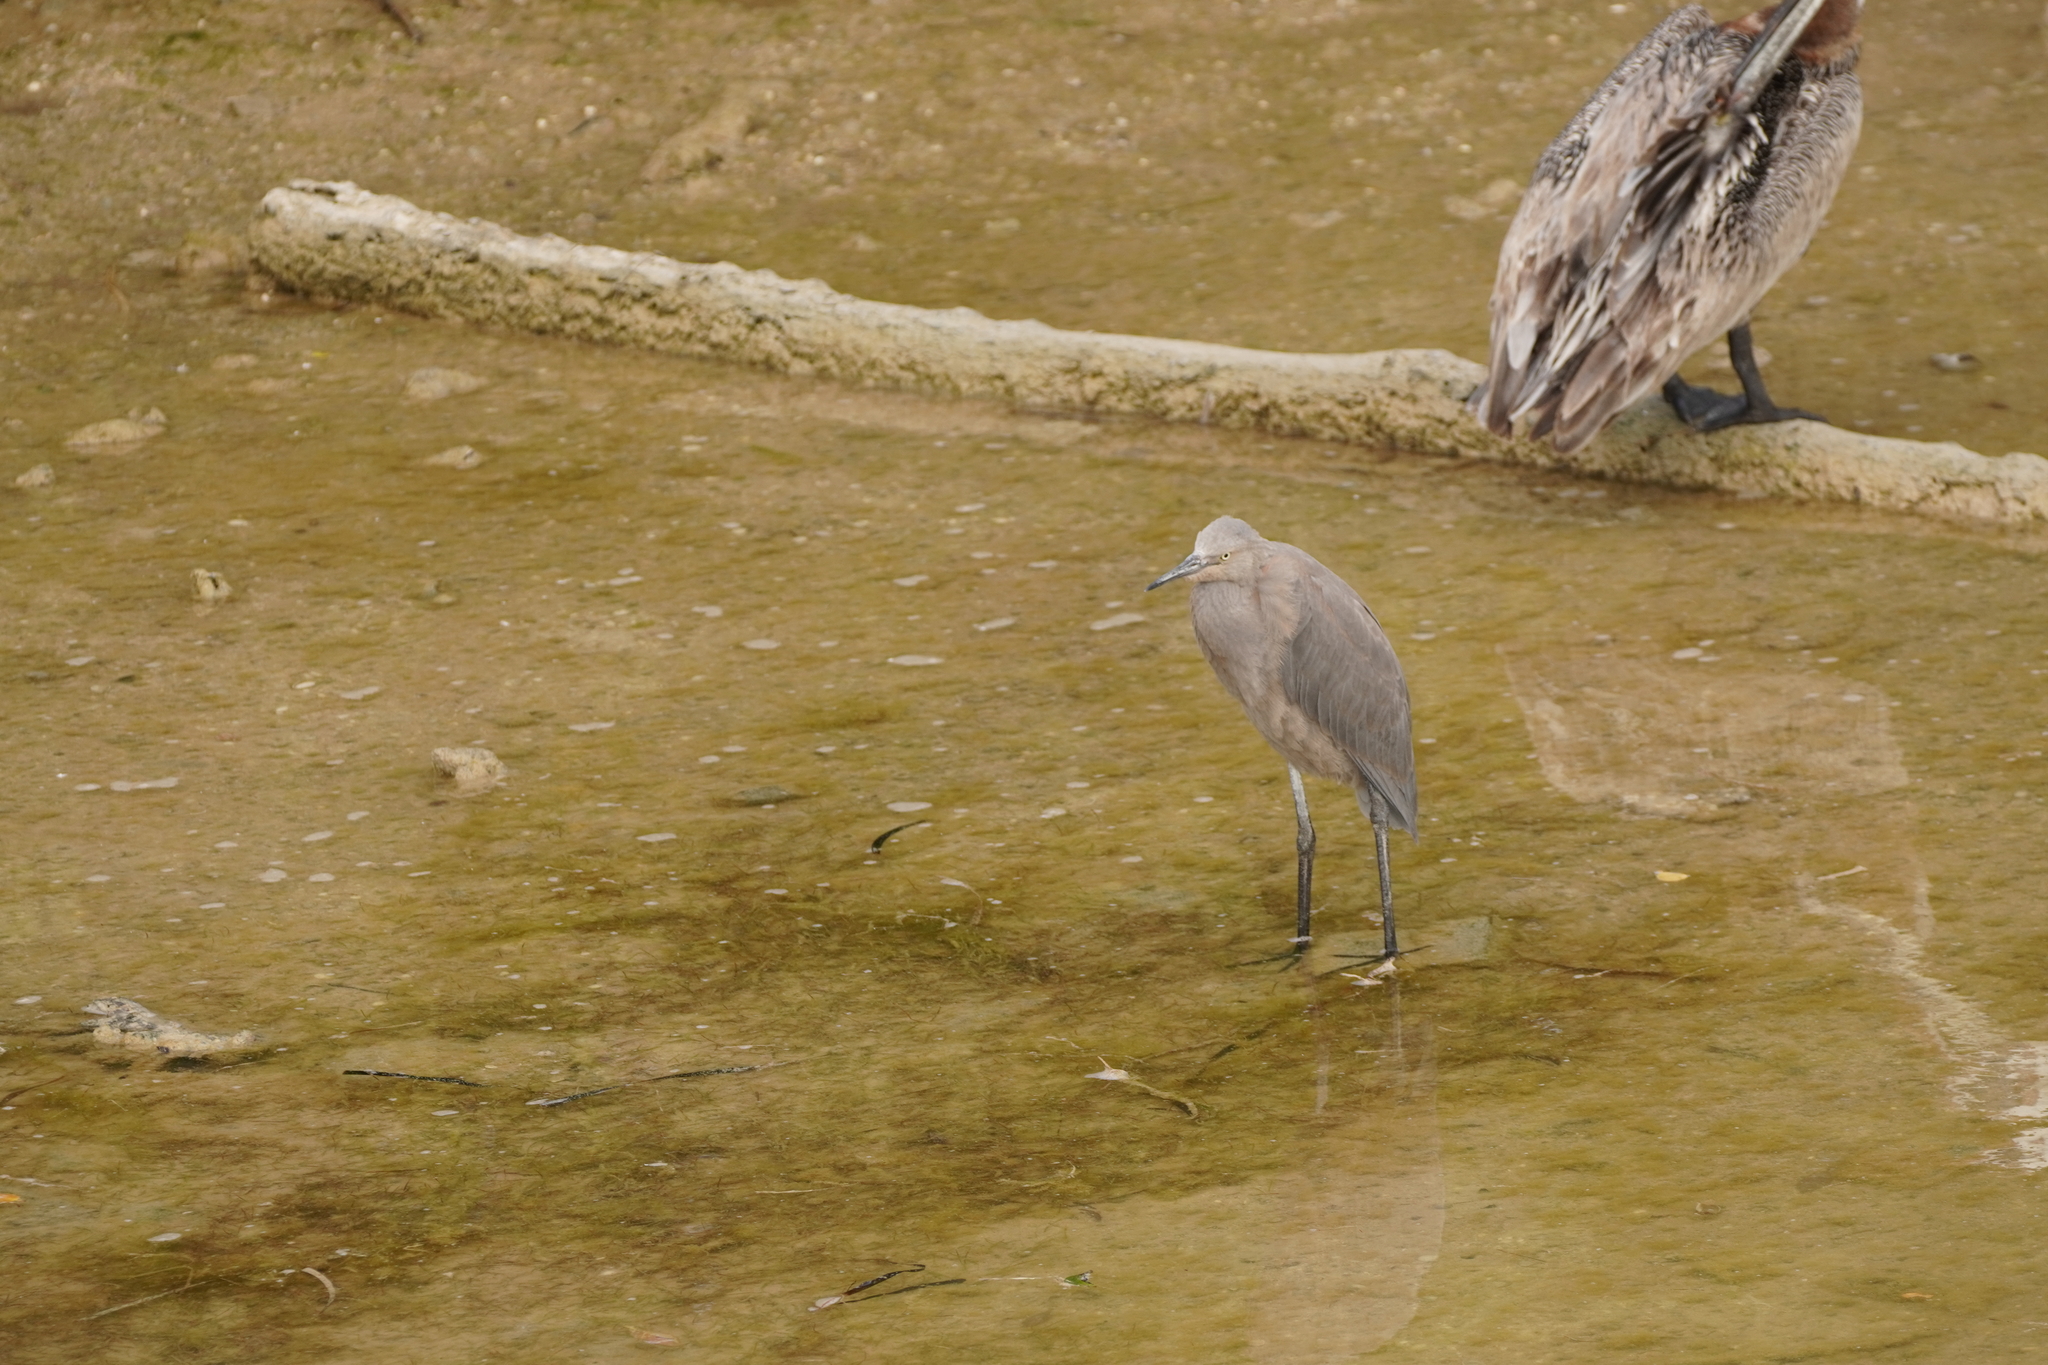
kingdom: Animalia
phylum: Chordata
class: Aves
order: Pelecaniformes
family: Ardeidae
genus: Egretta
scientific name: Egretta rufescens
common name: Reddish egret
